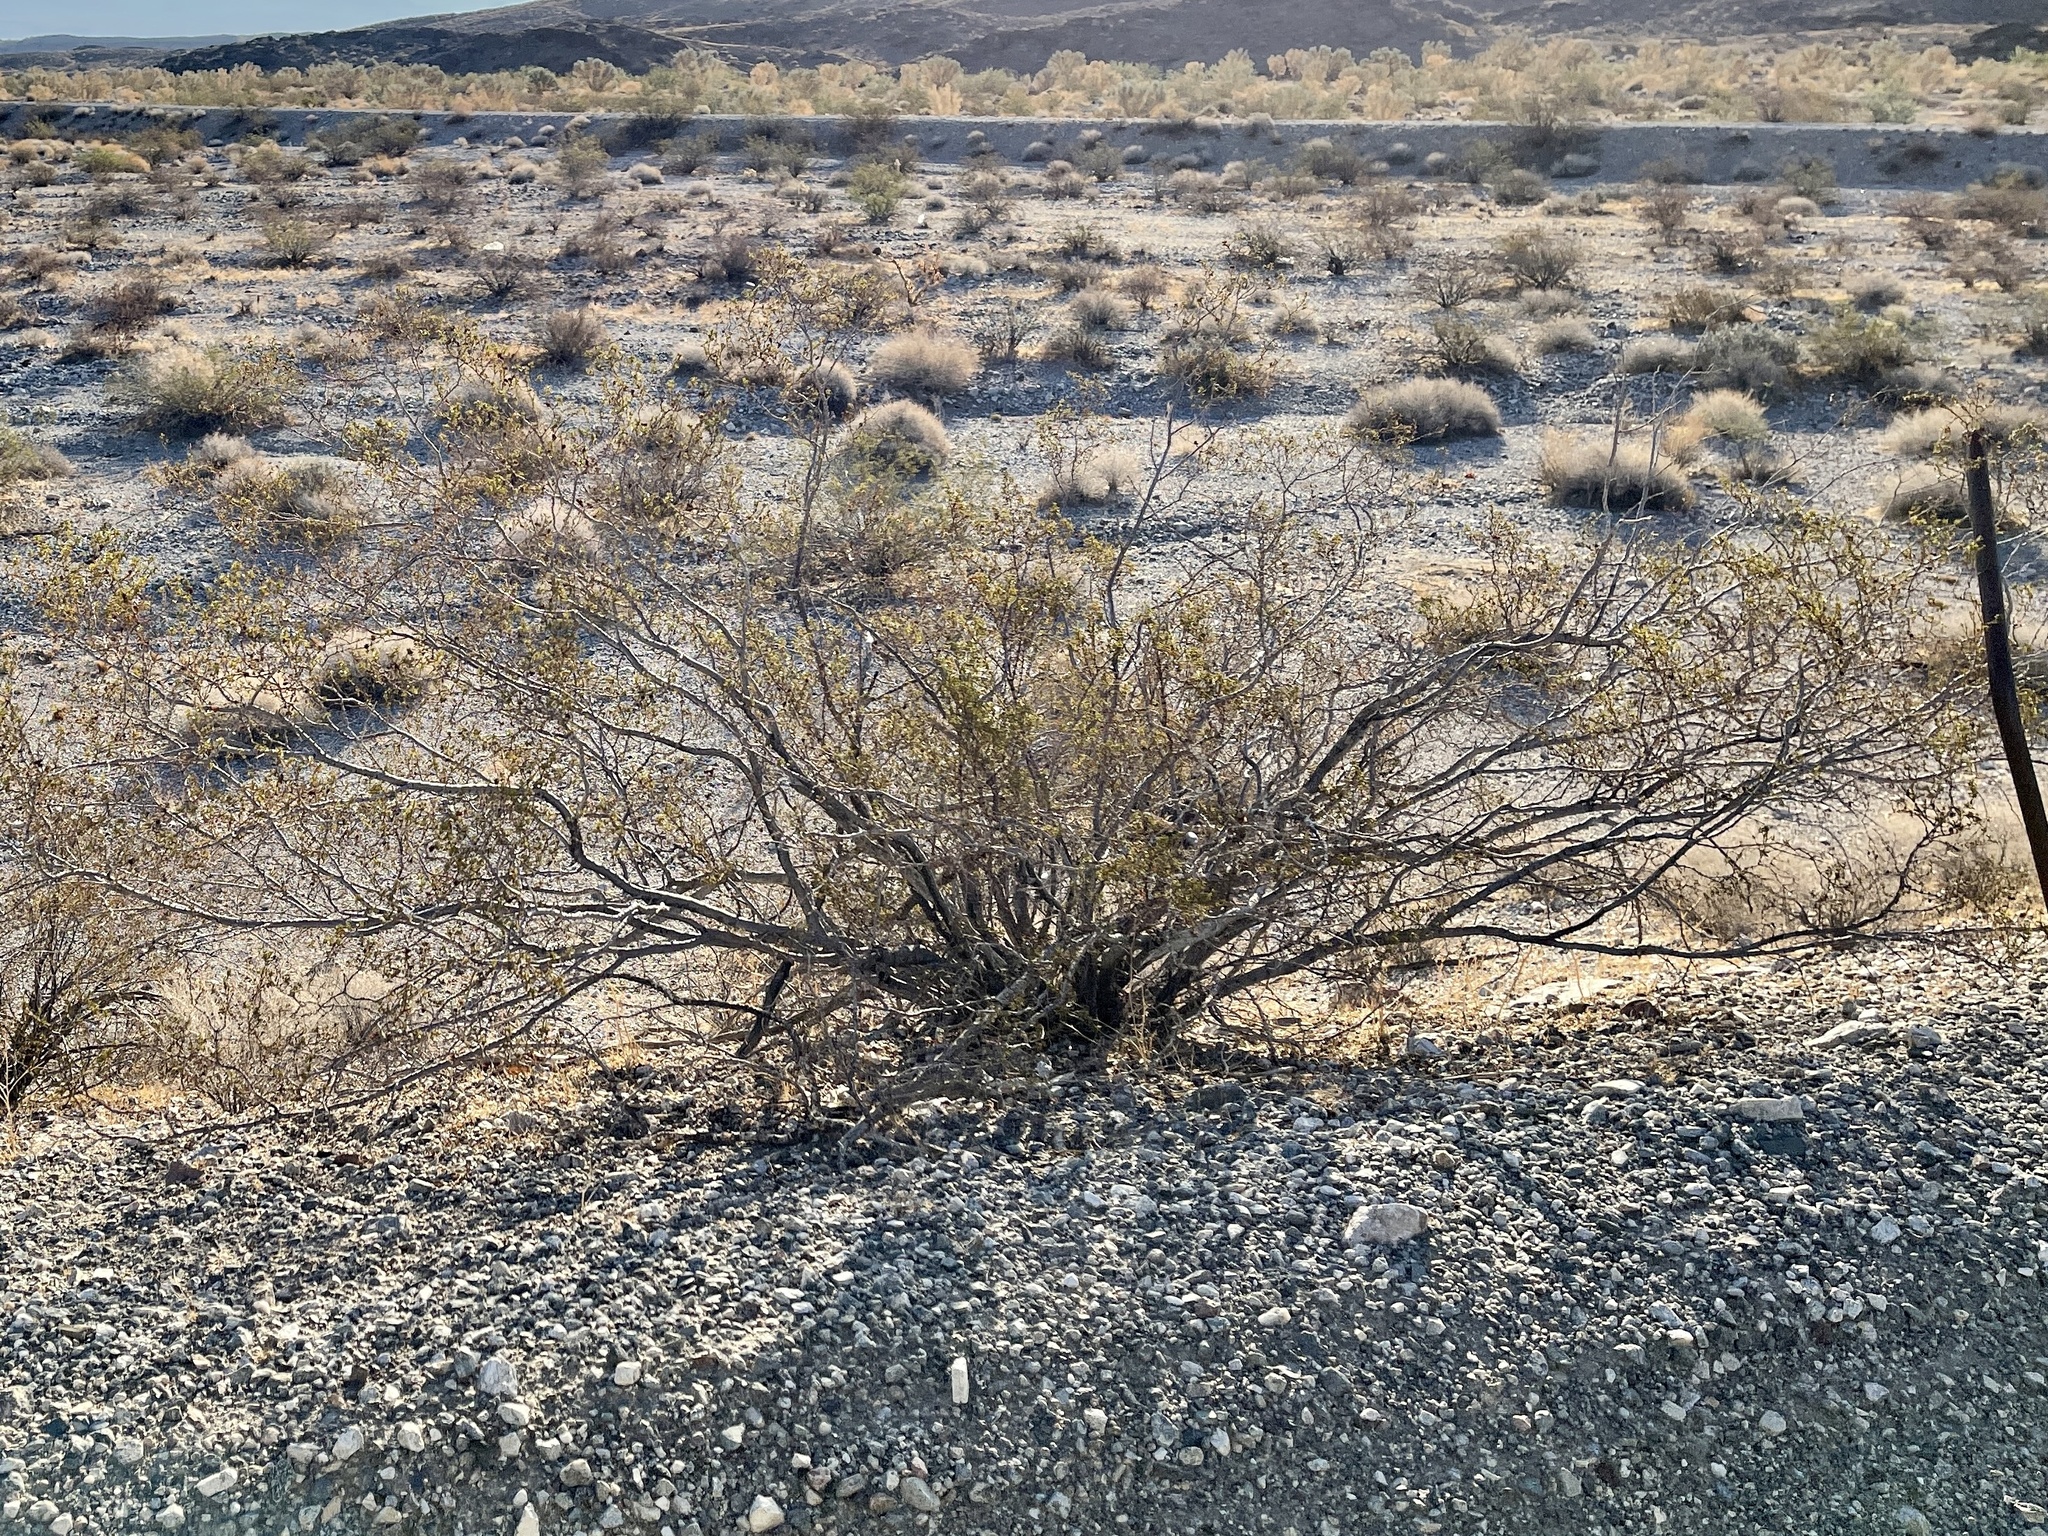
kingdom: Plantae
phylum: Tracheophyta
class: Magnoliopsida
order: Zygophyllales
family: Zygophyllaceae
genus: Larrea
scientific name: Larrea tridentata
